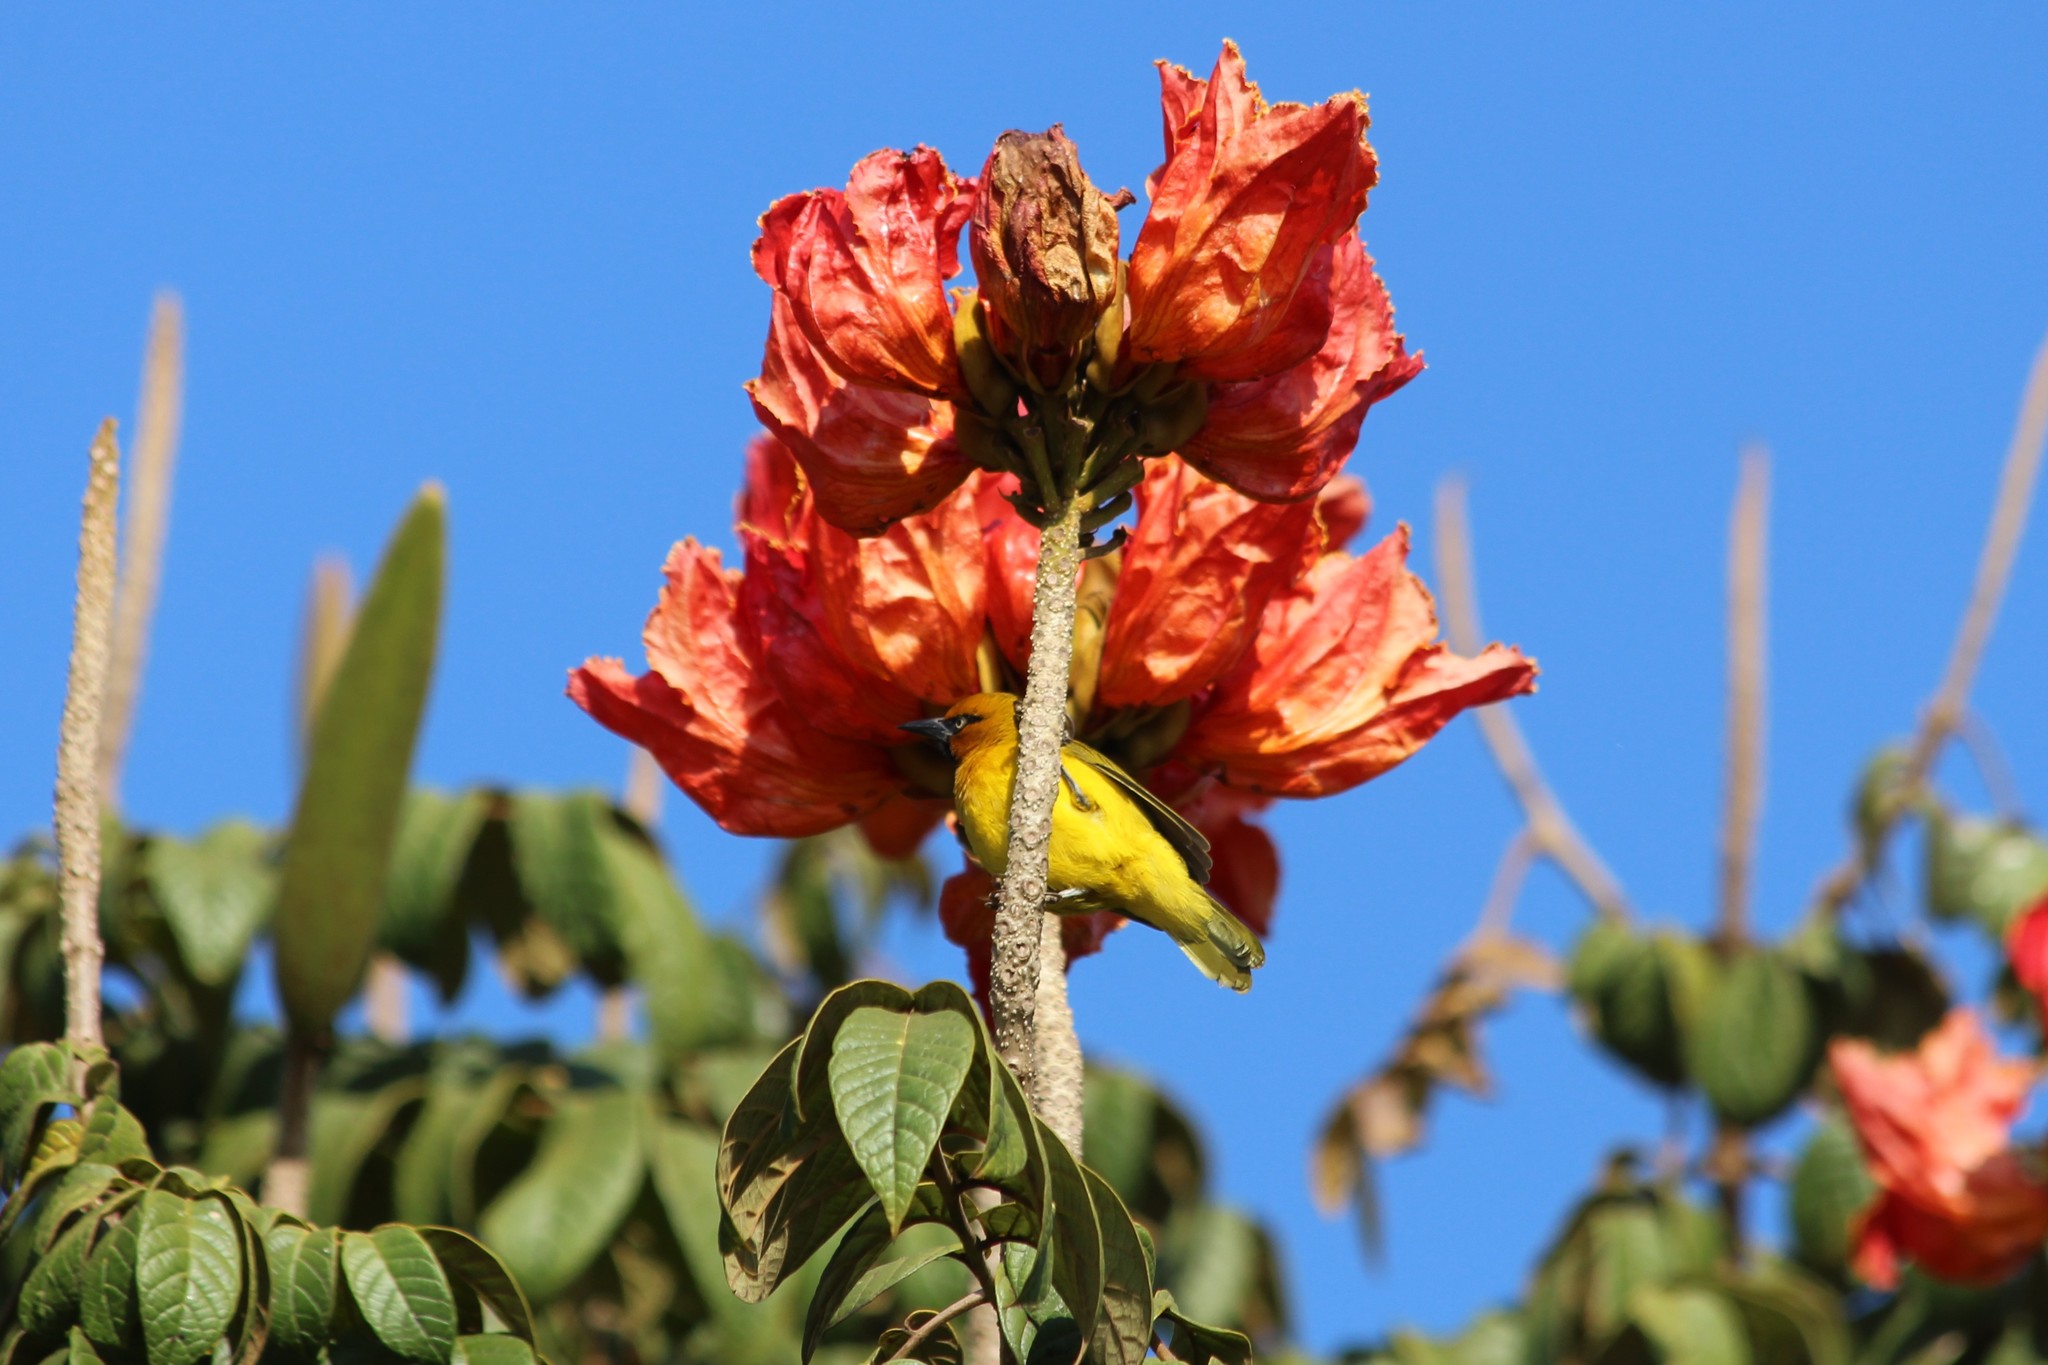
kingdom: Animalia
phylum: Chordata
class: Aves
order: Passeriformes
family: Ploceidae
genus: Ploceus
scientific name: Ploceus ocularis
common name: Spectacled weaver
